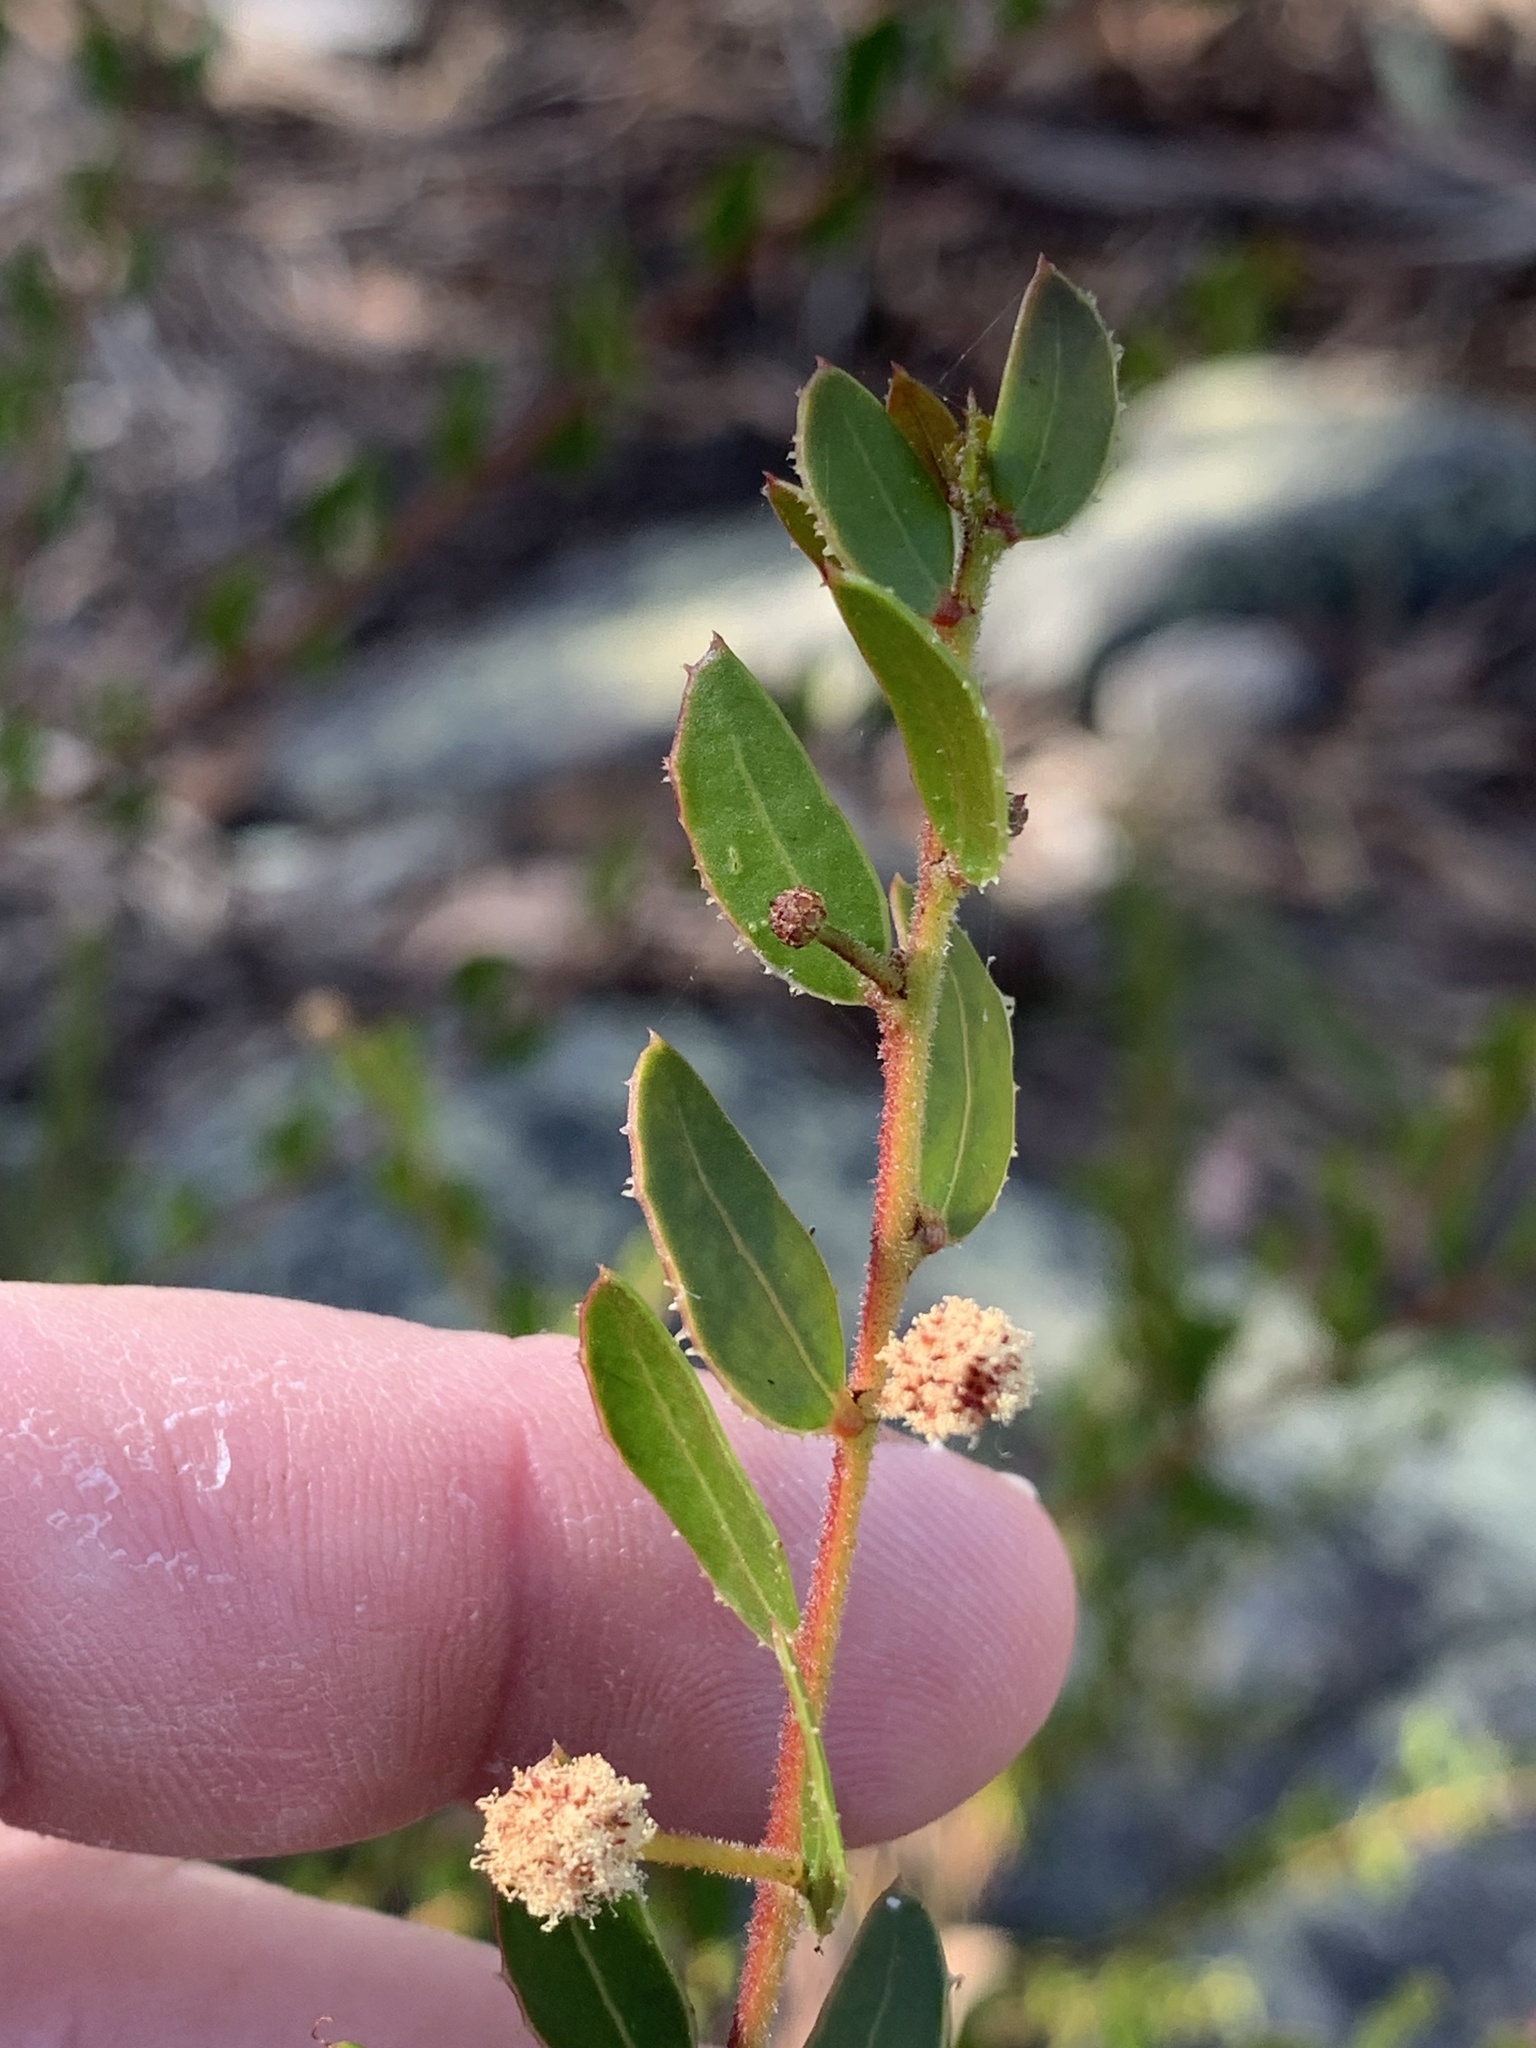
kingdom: Plantae
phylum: Tracheophyta
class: Magnoliopsida
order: Fabales
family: Fabaceae
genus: Acacia
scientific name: Acacia hispidula
